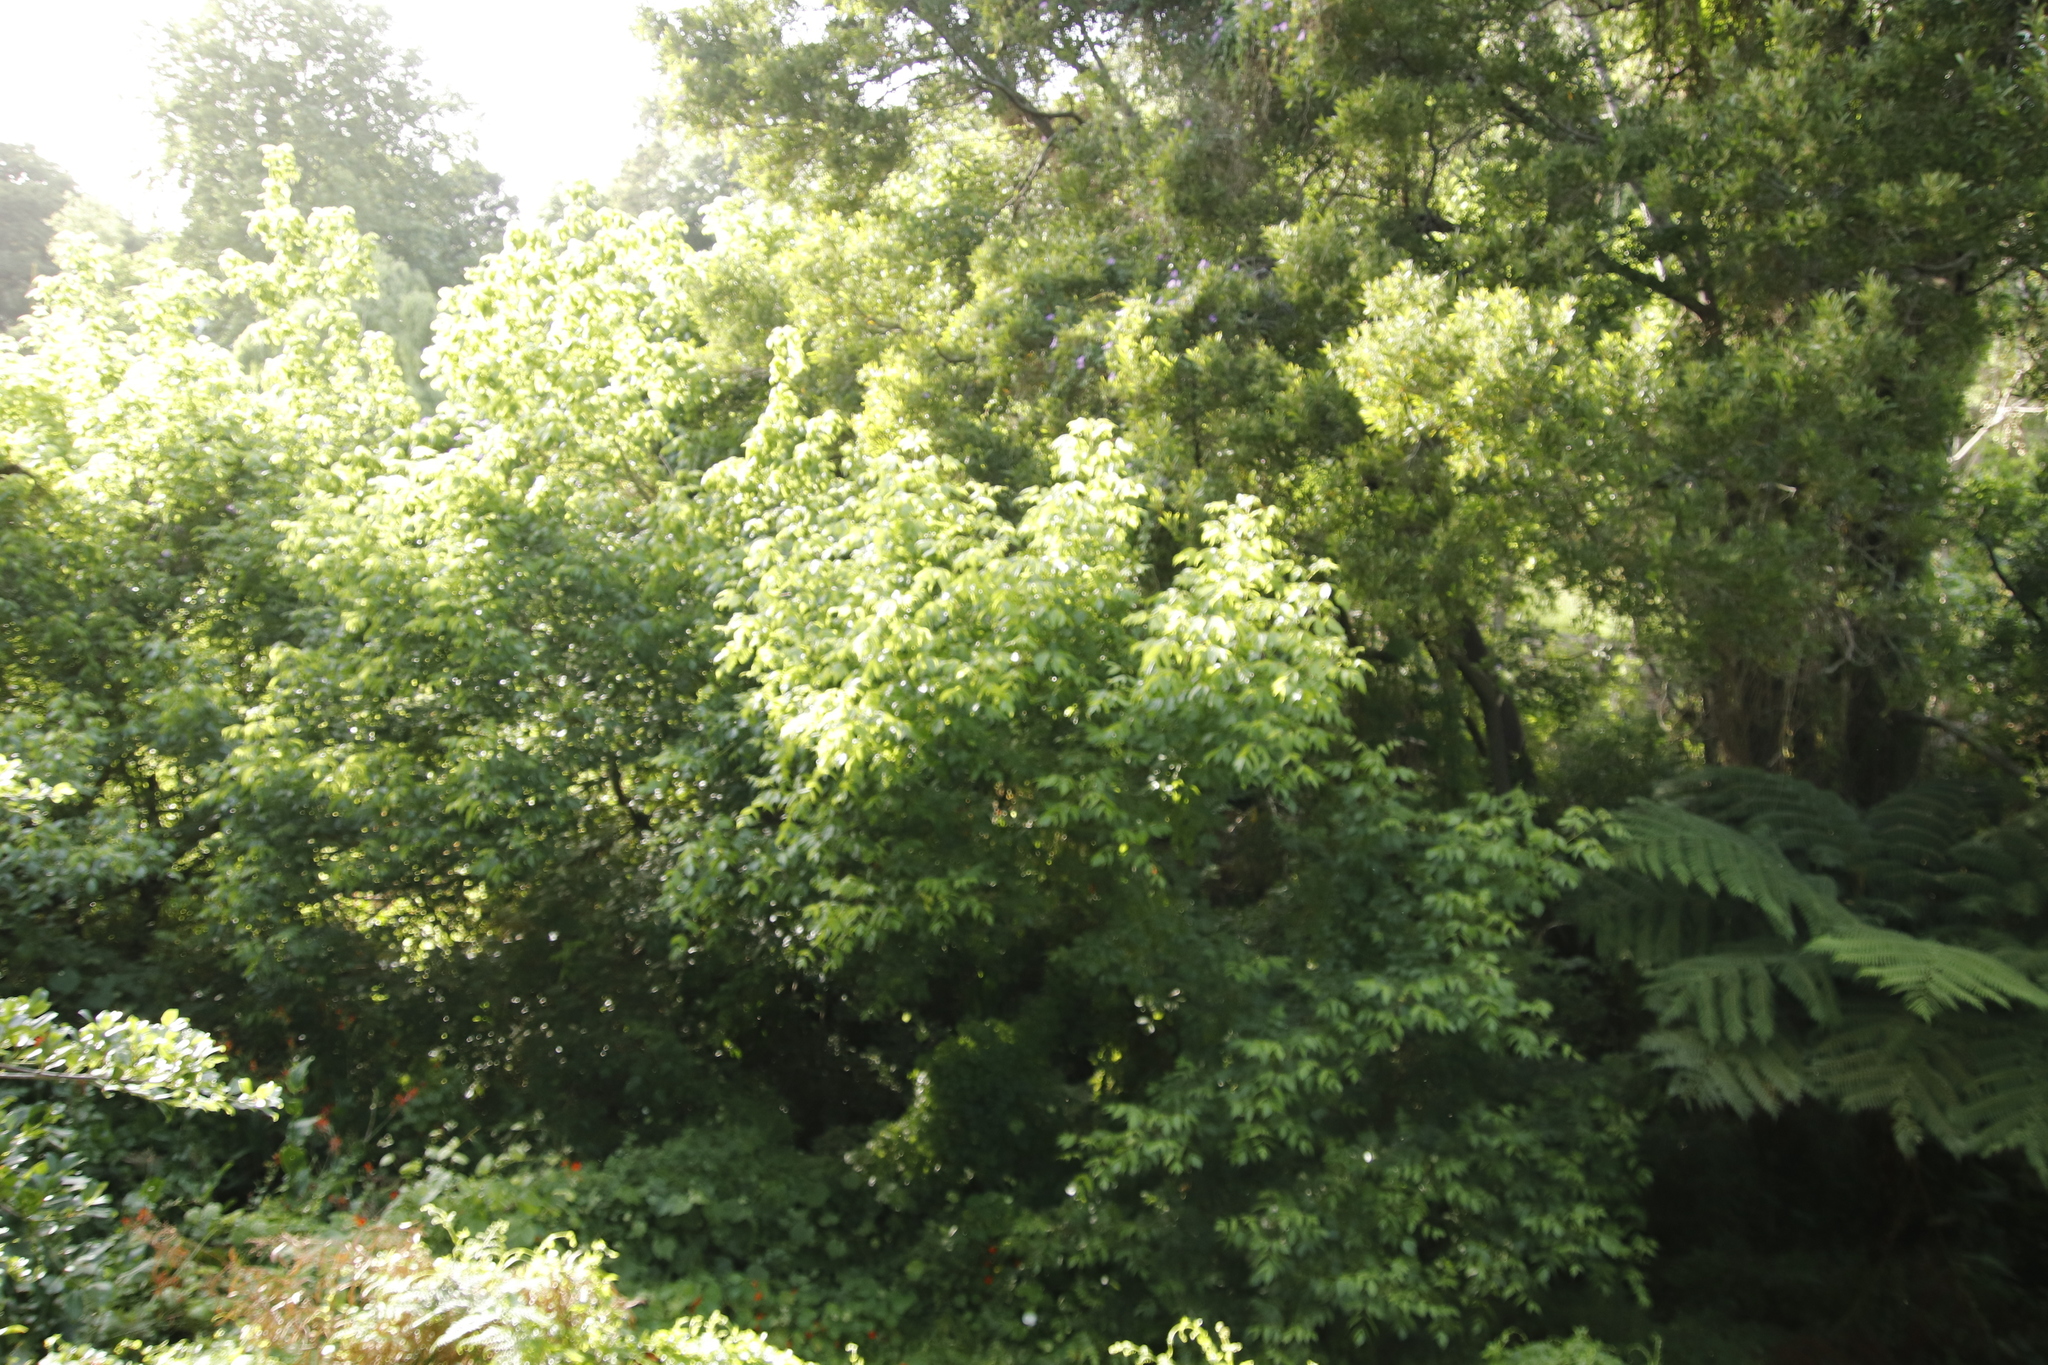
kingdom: Plantae
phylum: Tracheophyta
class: Magnoliopsida
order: Sapindales
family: Sapindaceae
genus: Acer
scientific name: Acer negundo
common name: Ashleaf maple
